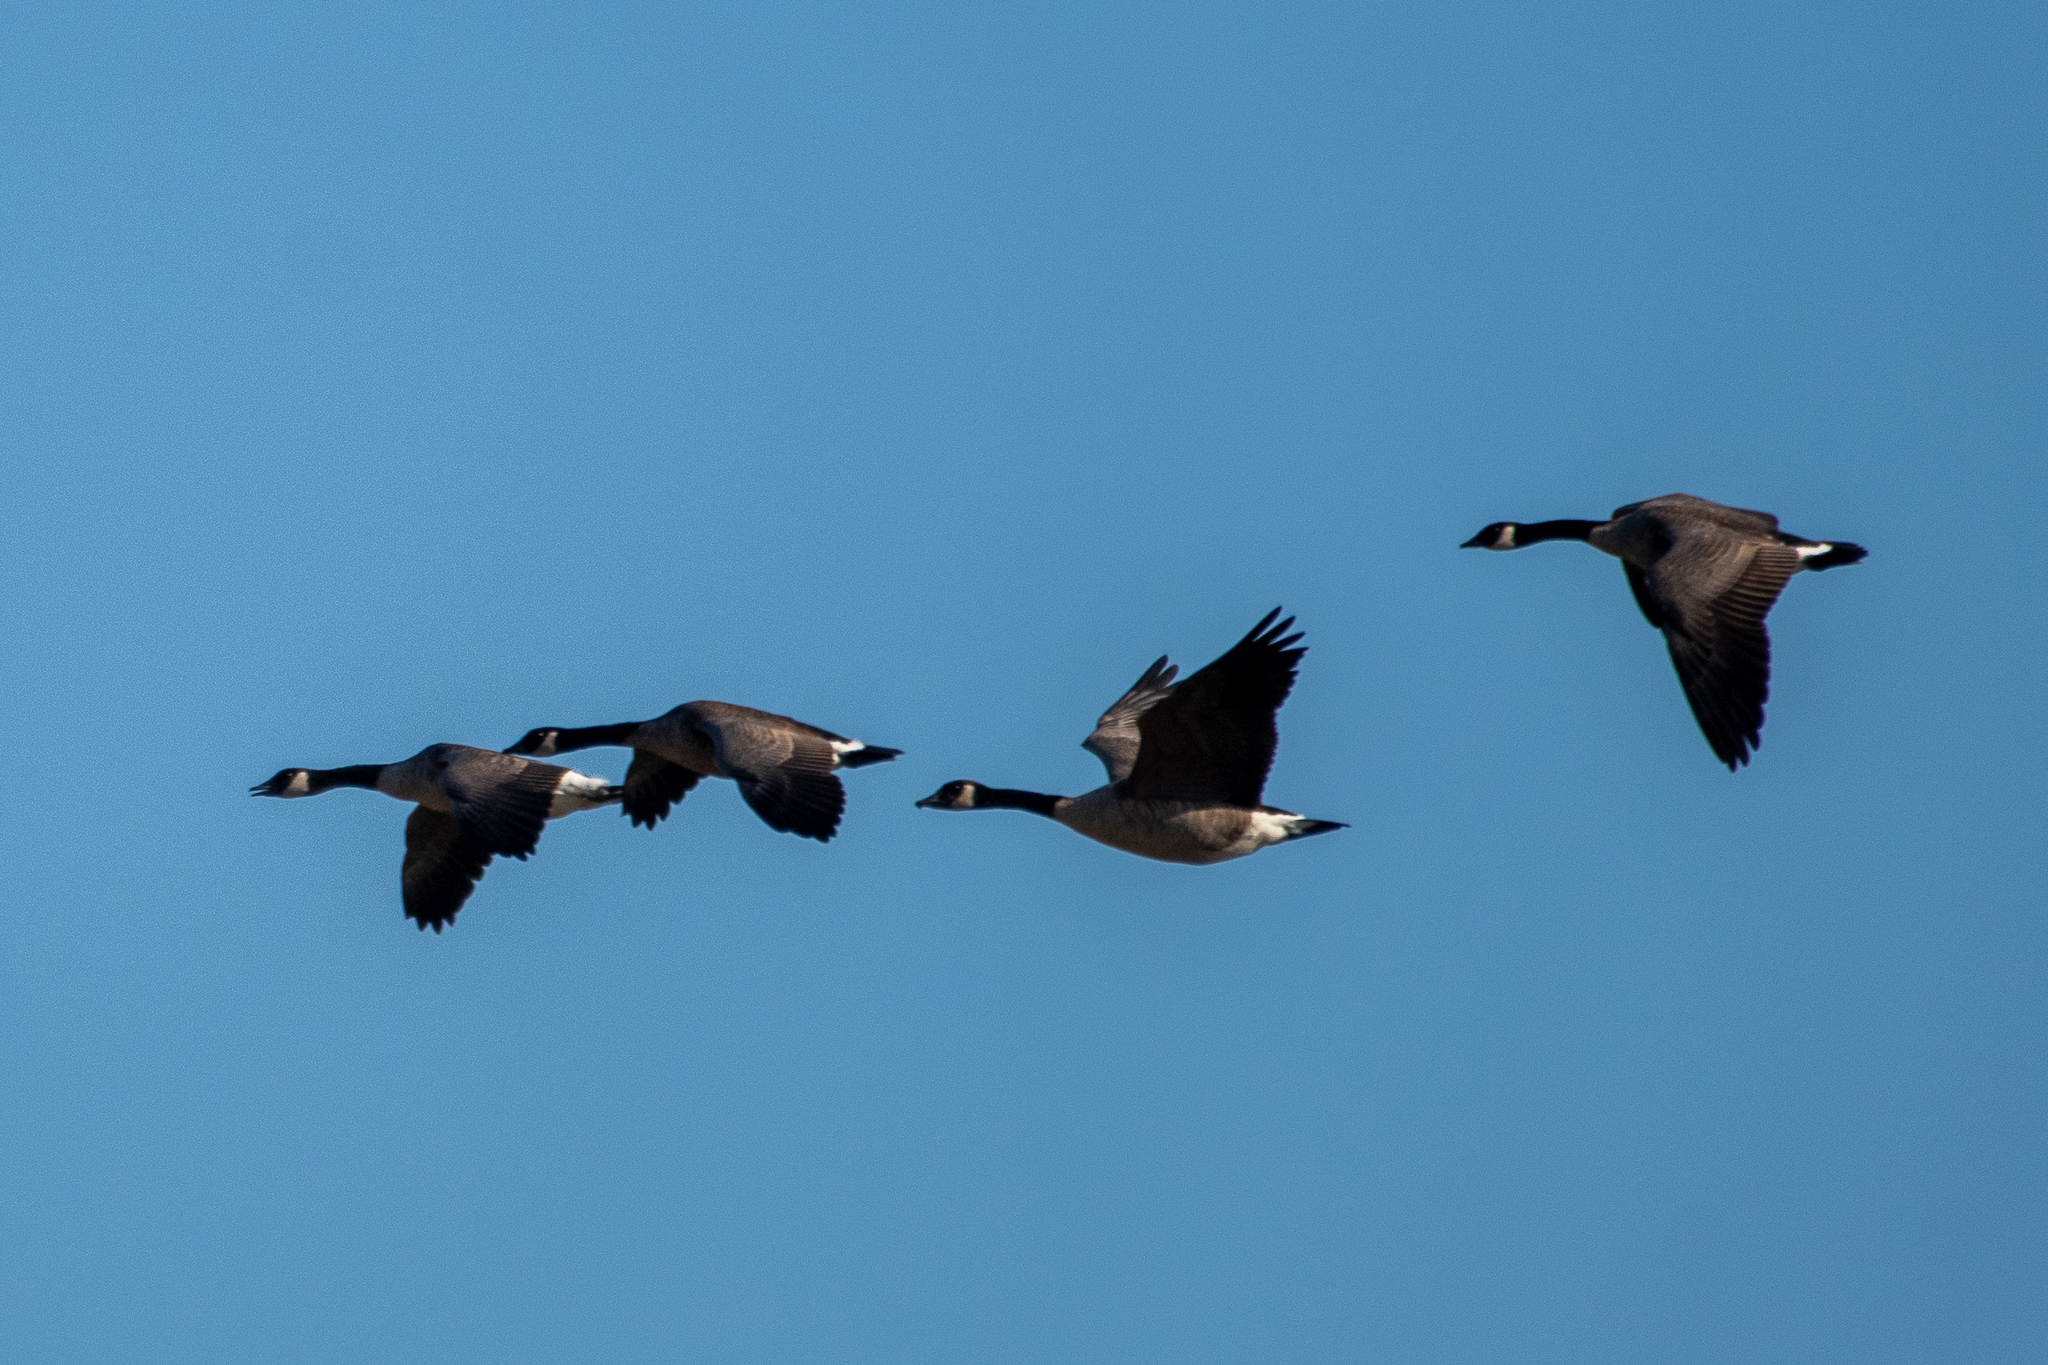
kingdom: Animalia
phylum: Chordata
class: Aves
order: Anseriformes
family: Anatidae
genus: Branta
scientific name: Branta canadensis
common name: Canada goose
